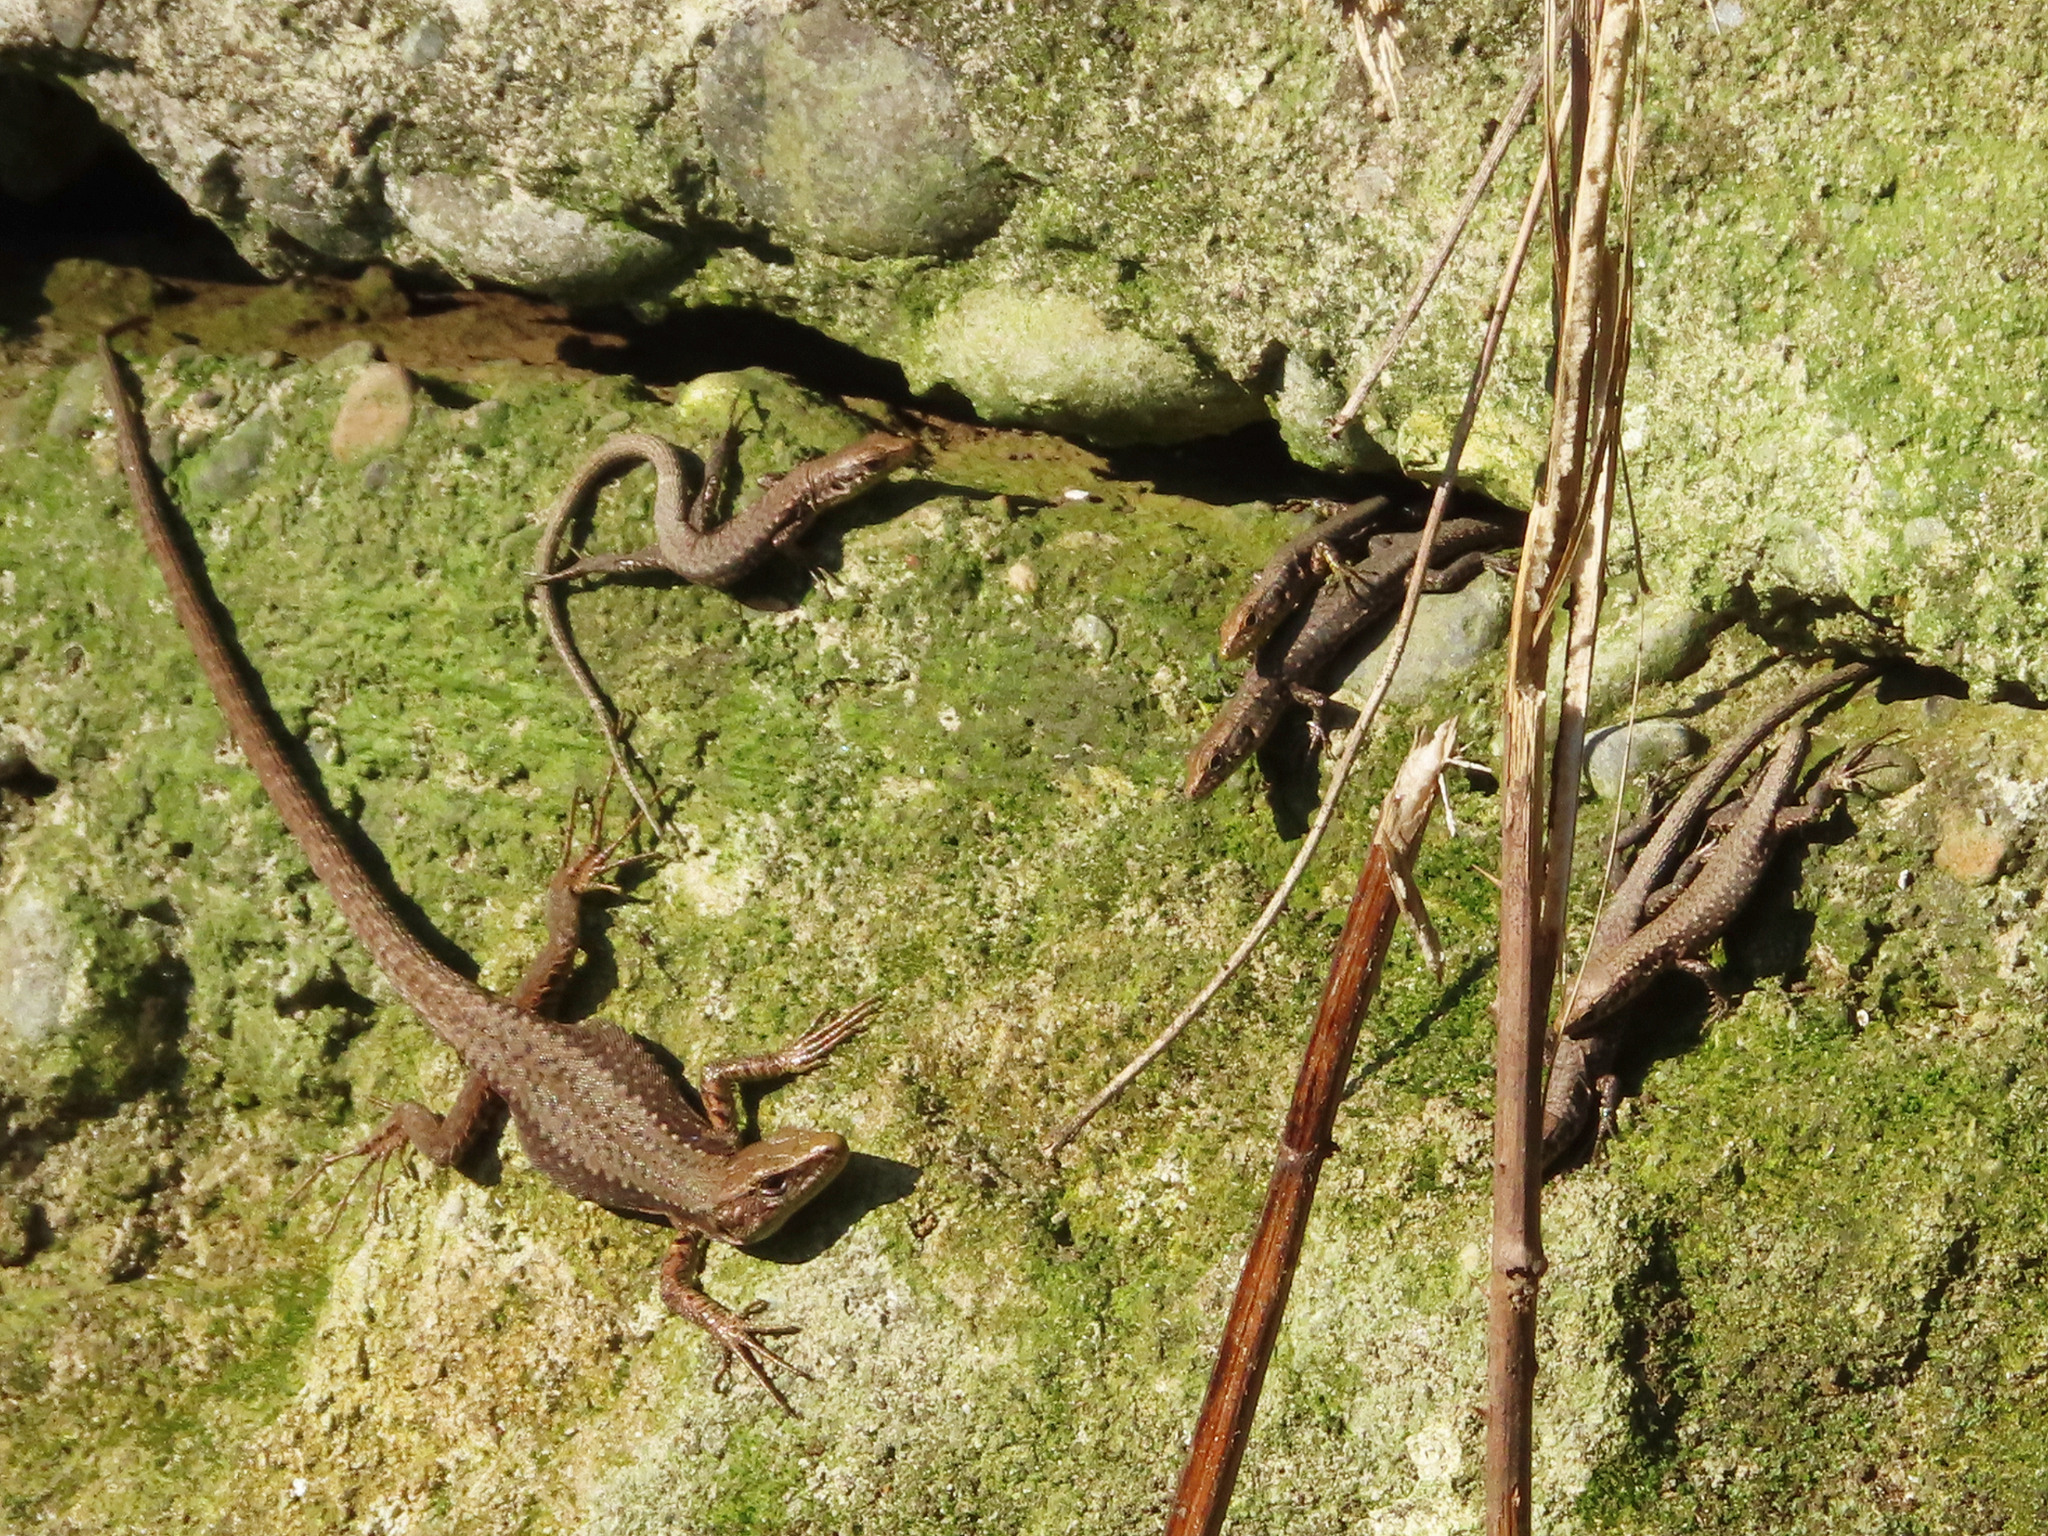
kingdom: Animalia
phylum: Chordata
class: Squamata
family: Lacertidae
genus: Darevskia
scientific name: Darevskia mixta
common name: Ajarian lizard
